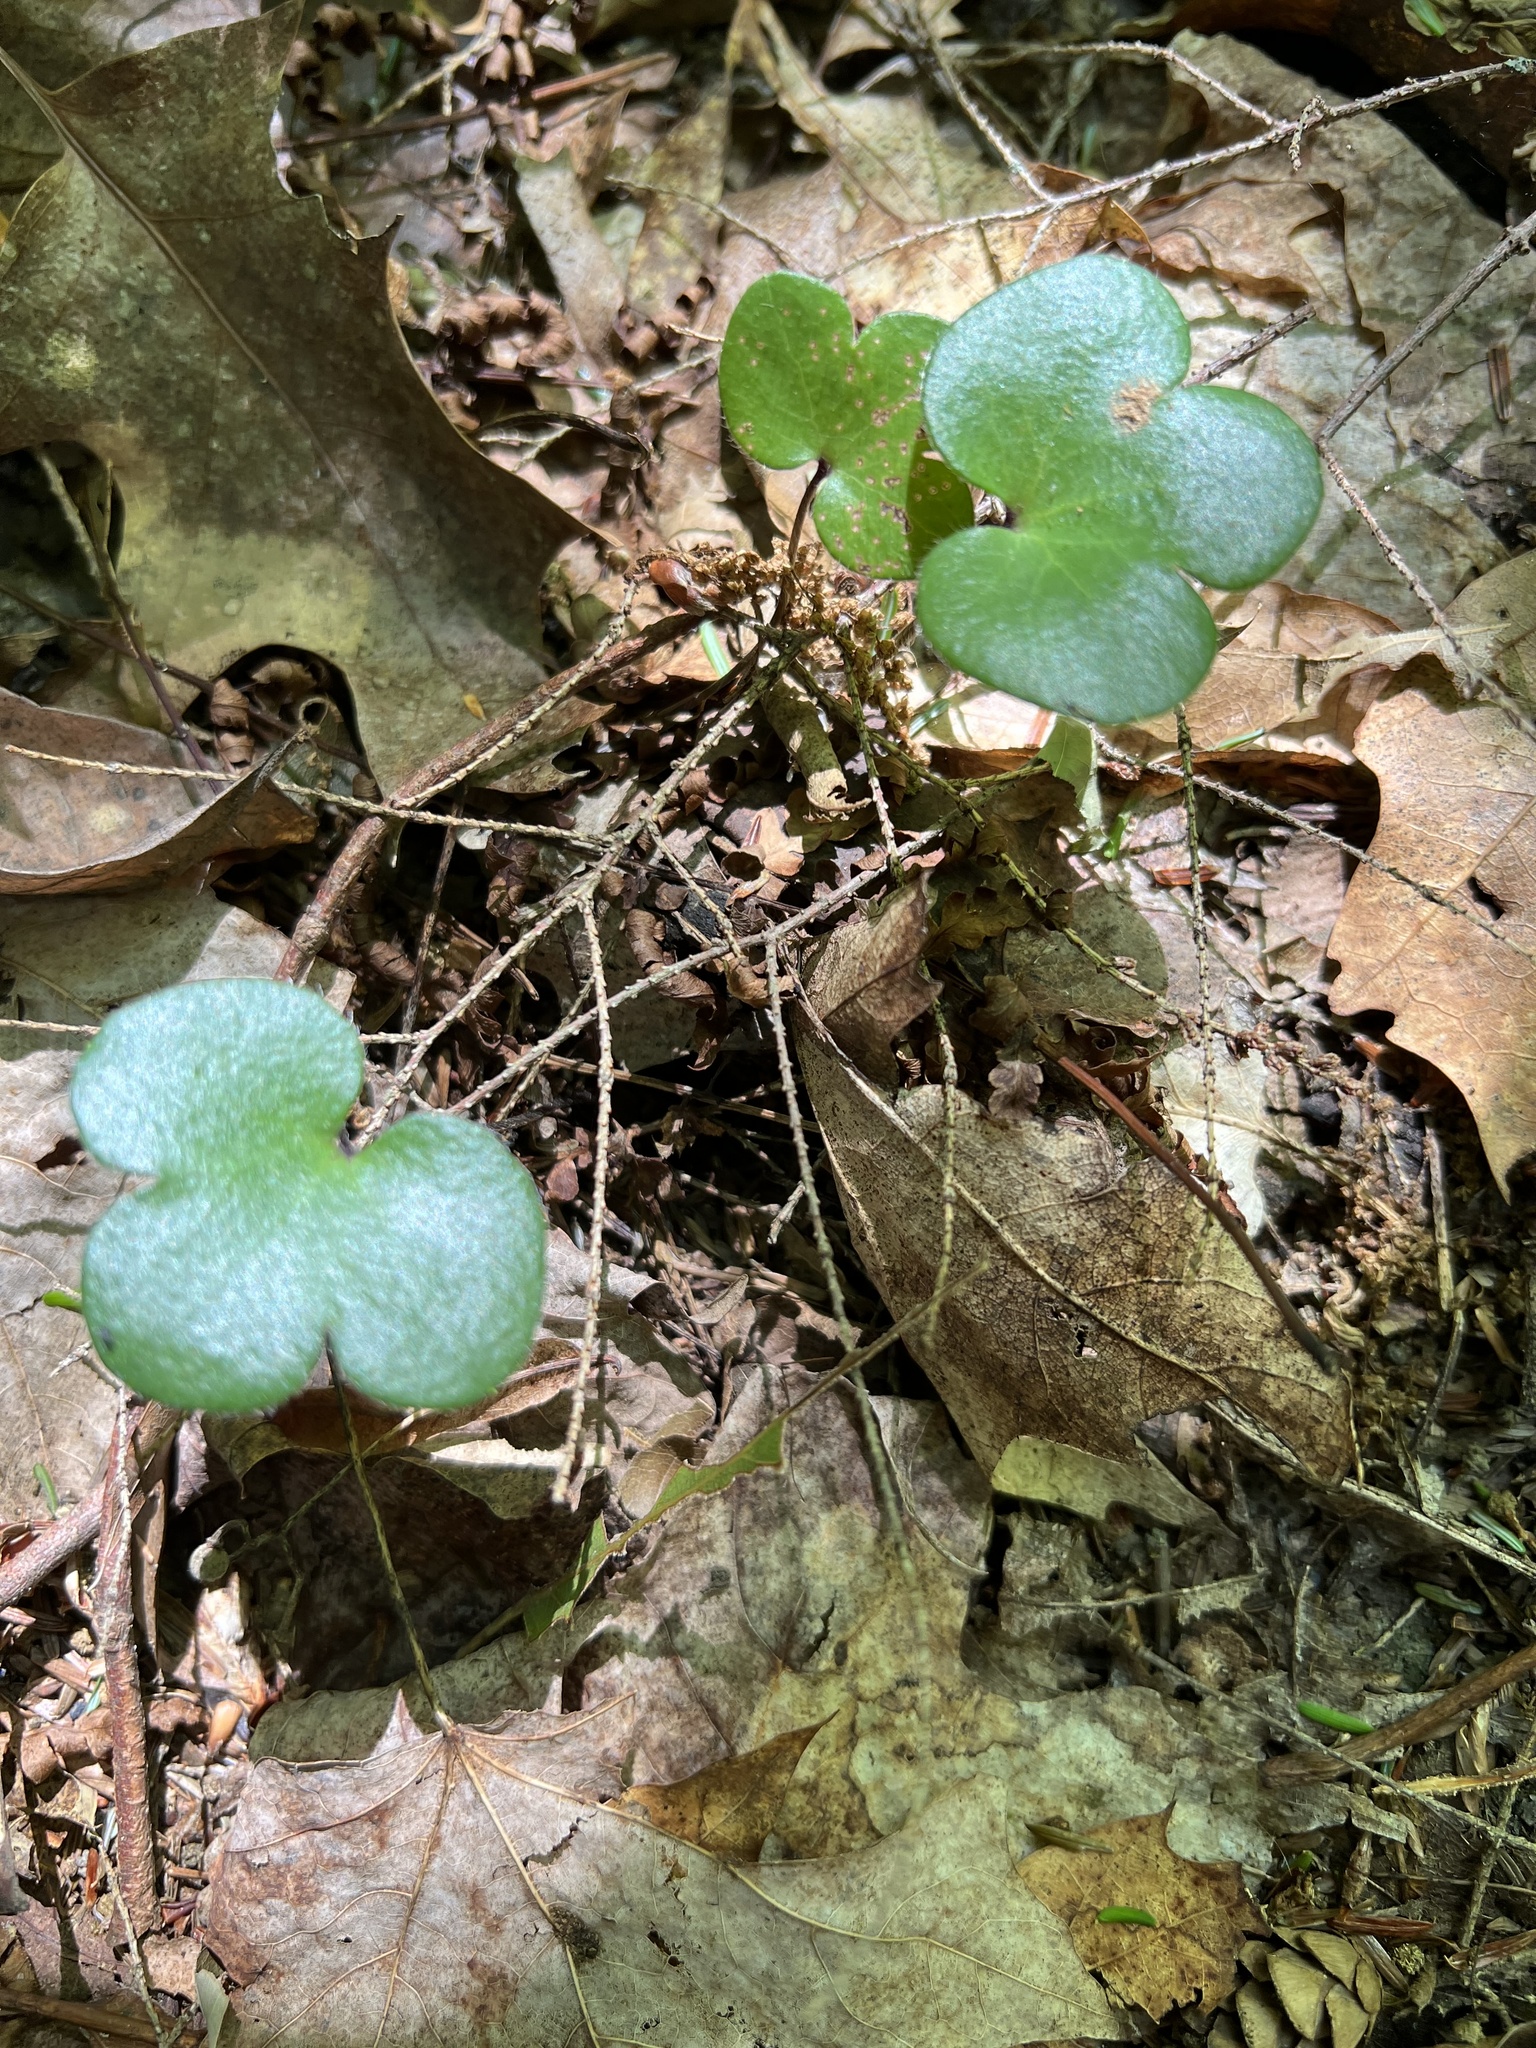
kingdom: Plantae
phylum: Tracheophyta
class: Magnoliopsida
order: Ranunculales
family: Ranunculaceae
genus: Hepatica
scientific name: Hepatica americana
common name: American hepatica
